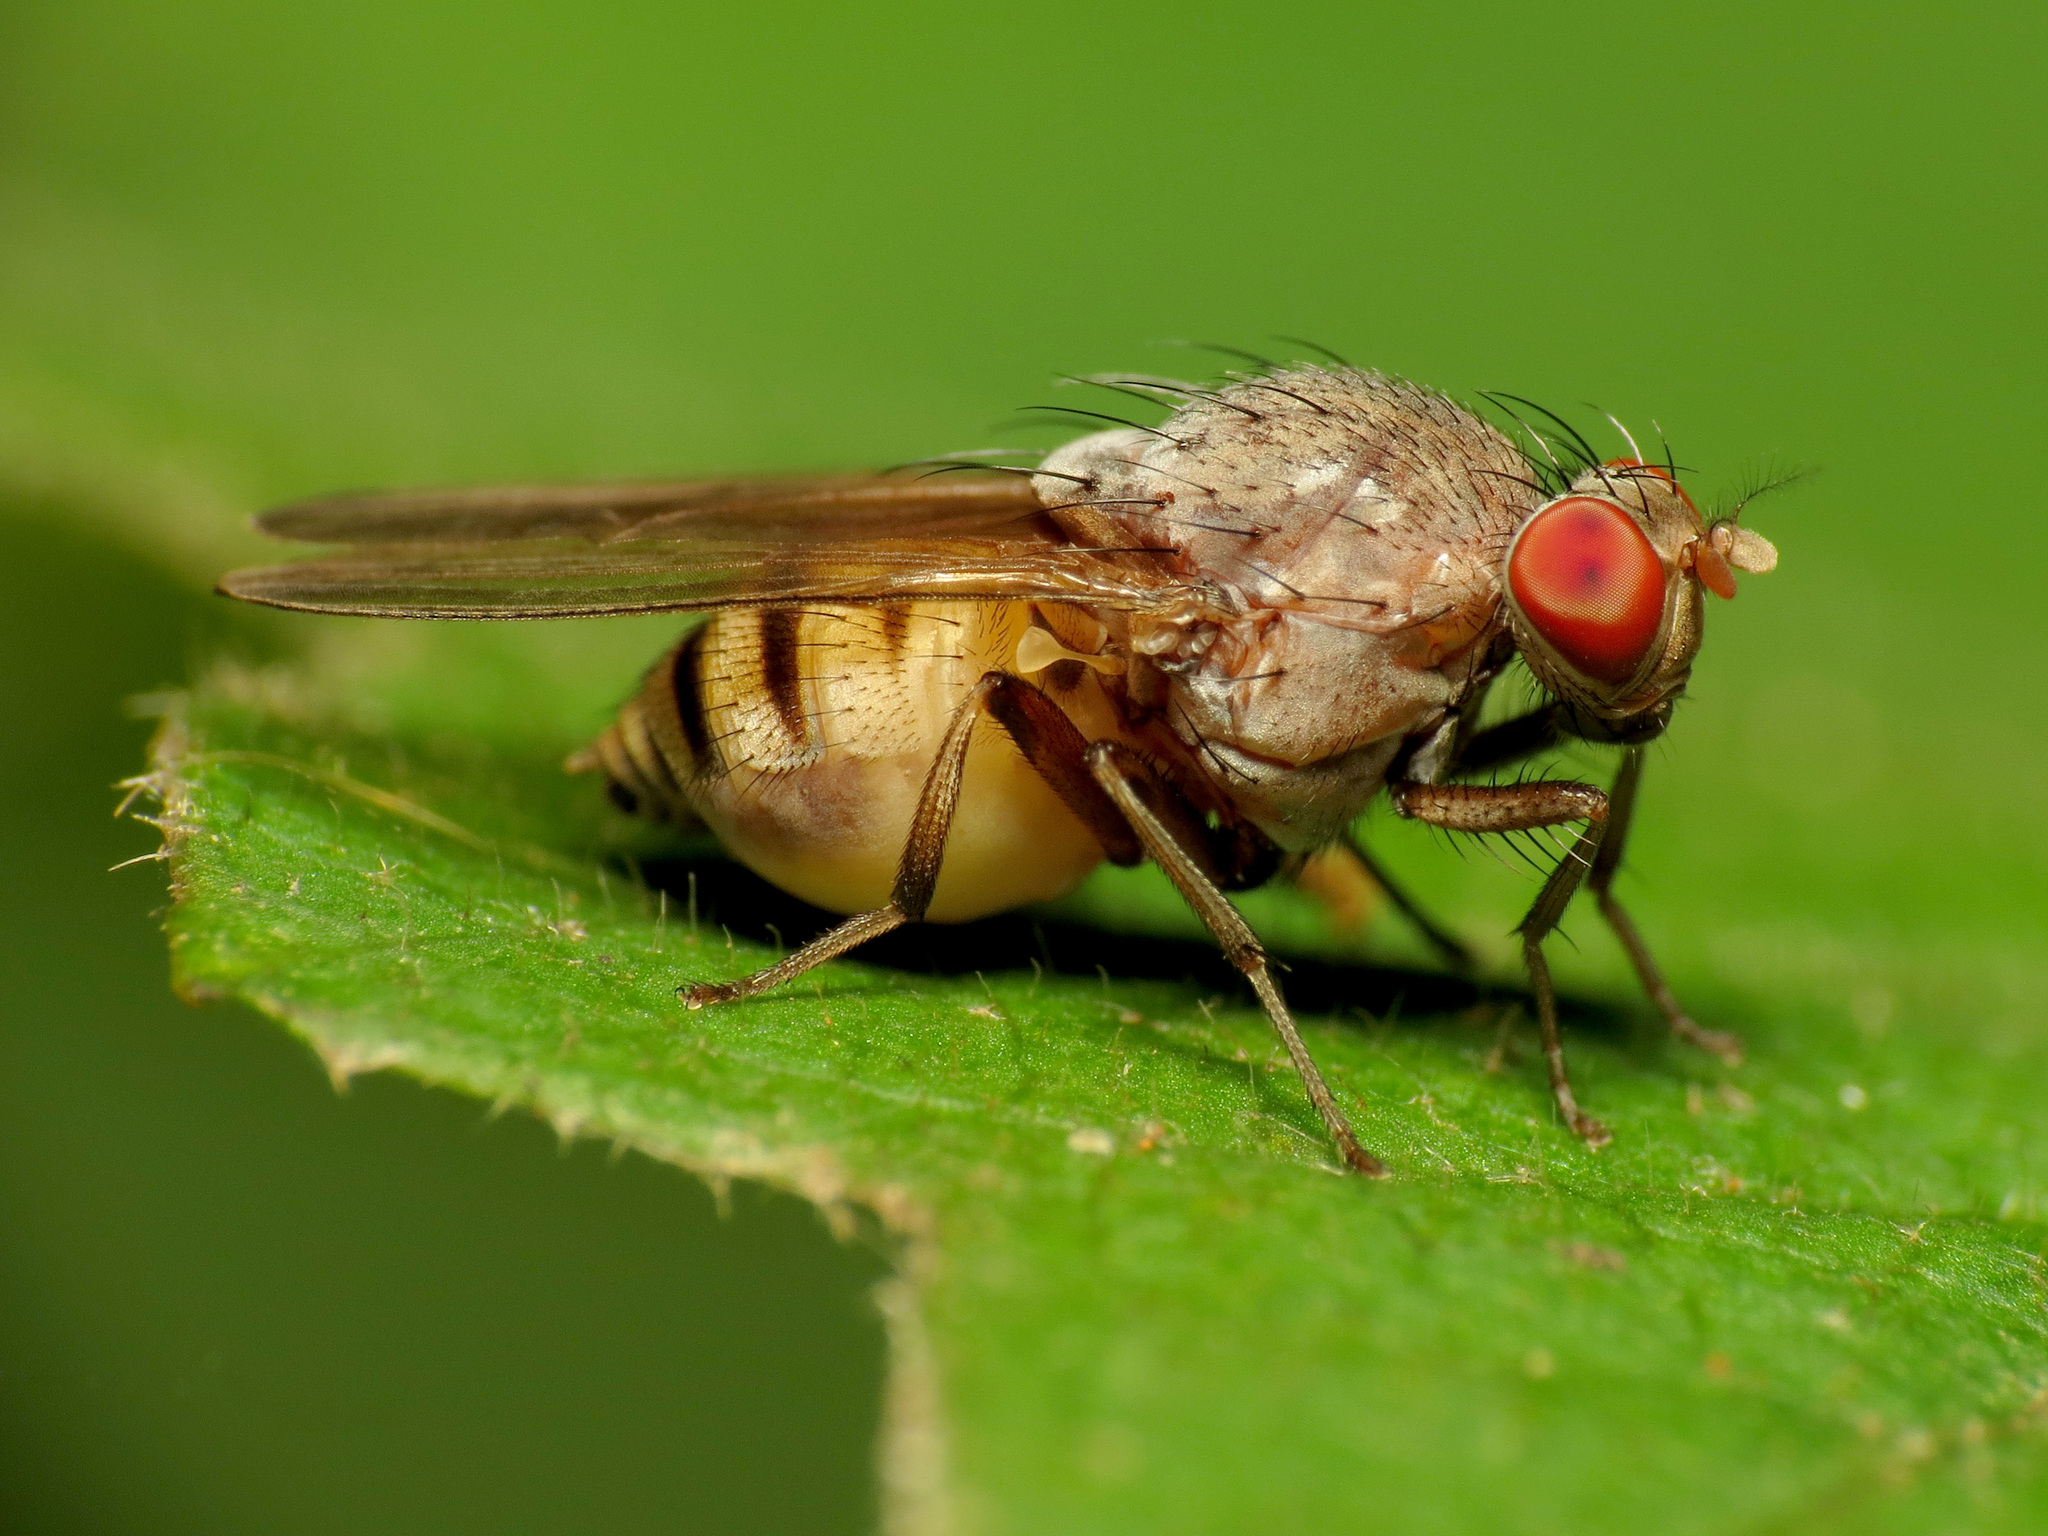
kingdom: Animalia
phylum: Arthropoda
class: Insecta
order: Diptera
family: Lauxaniidae
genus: Minettia
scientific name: Minettia magna
